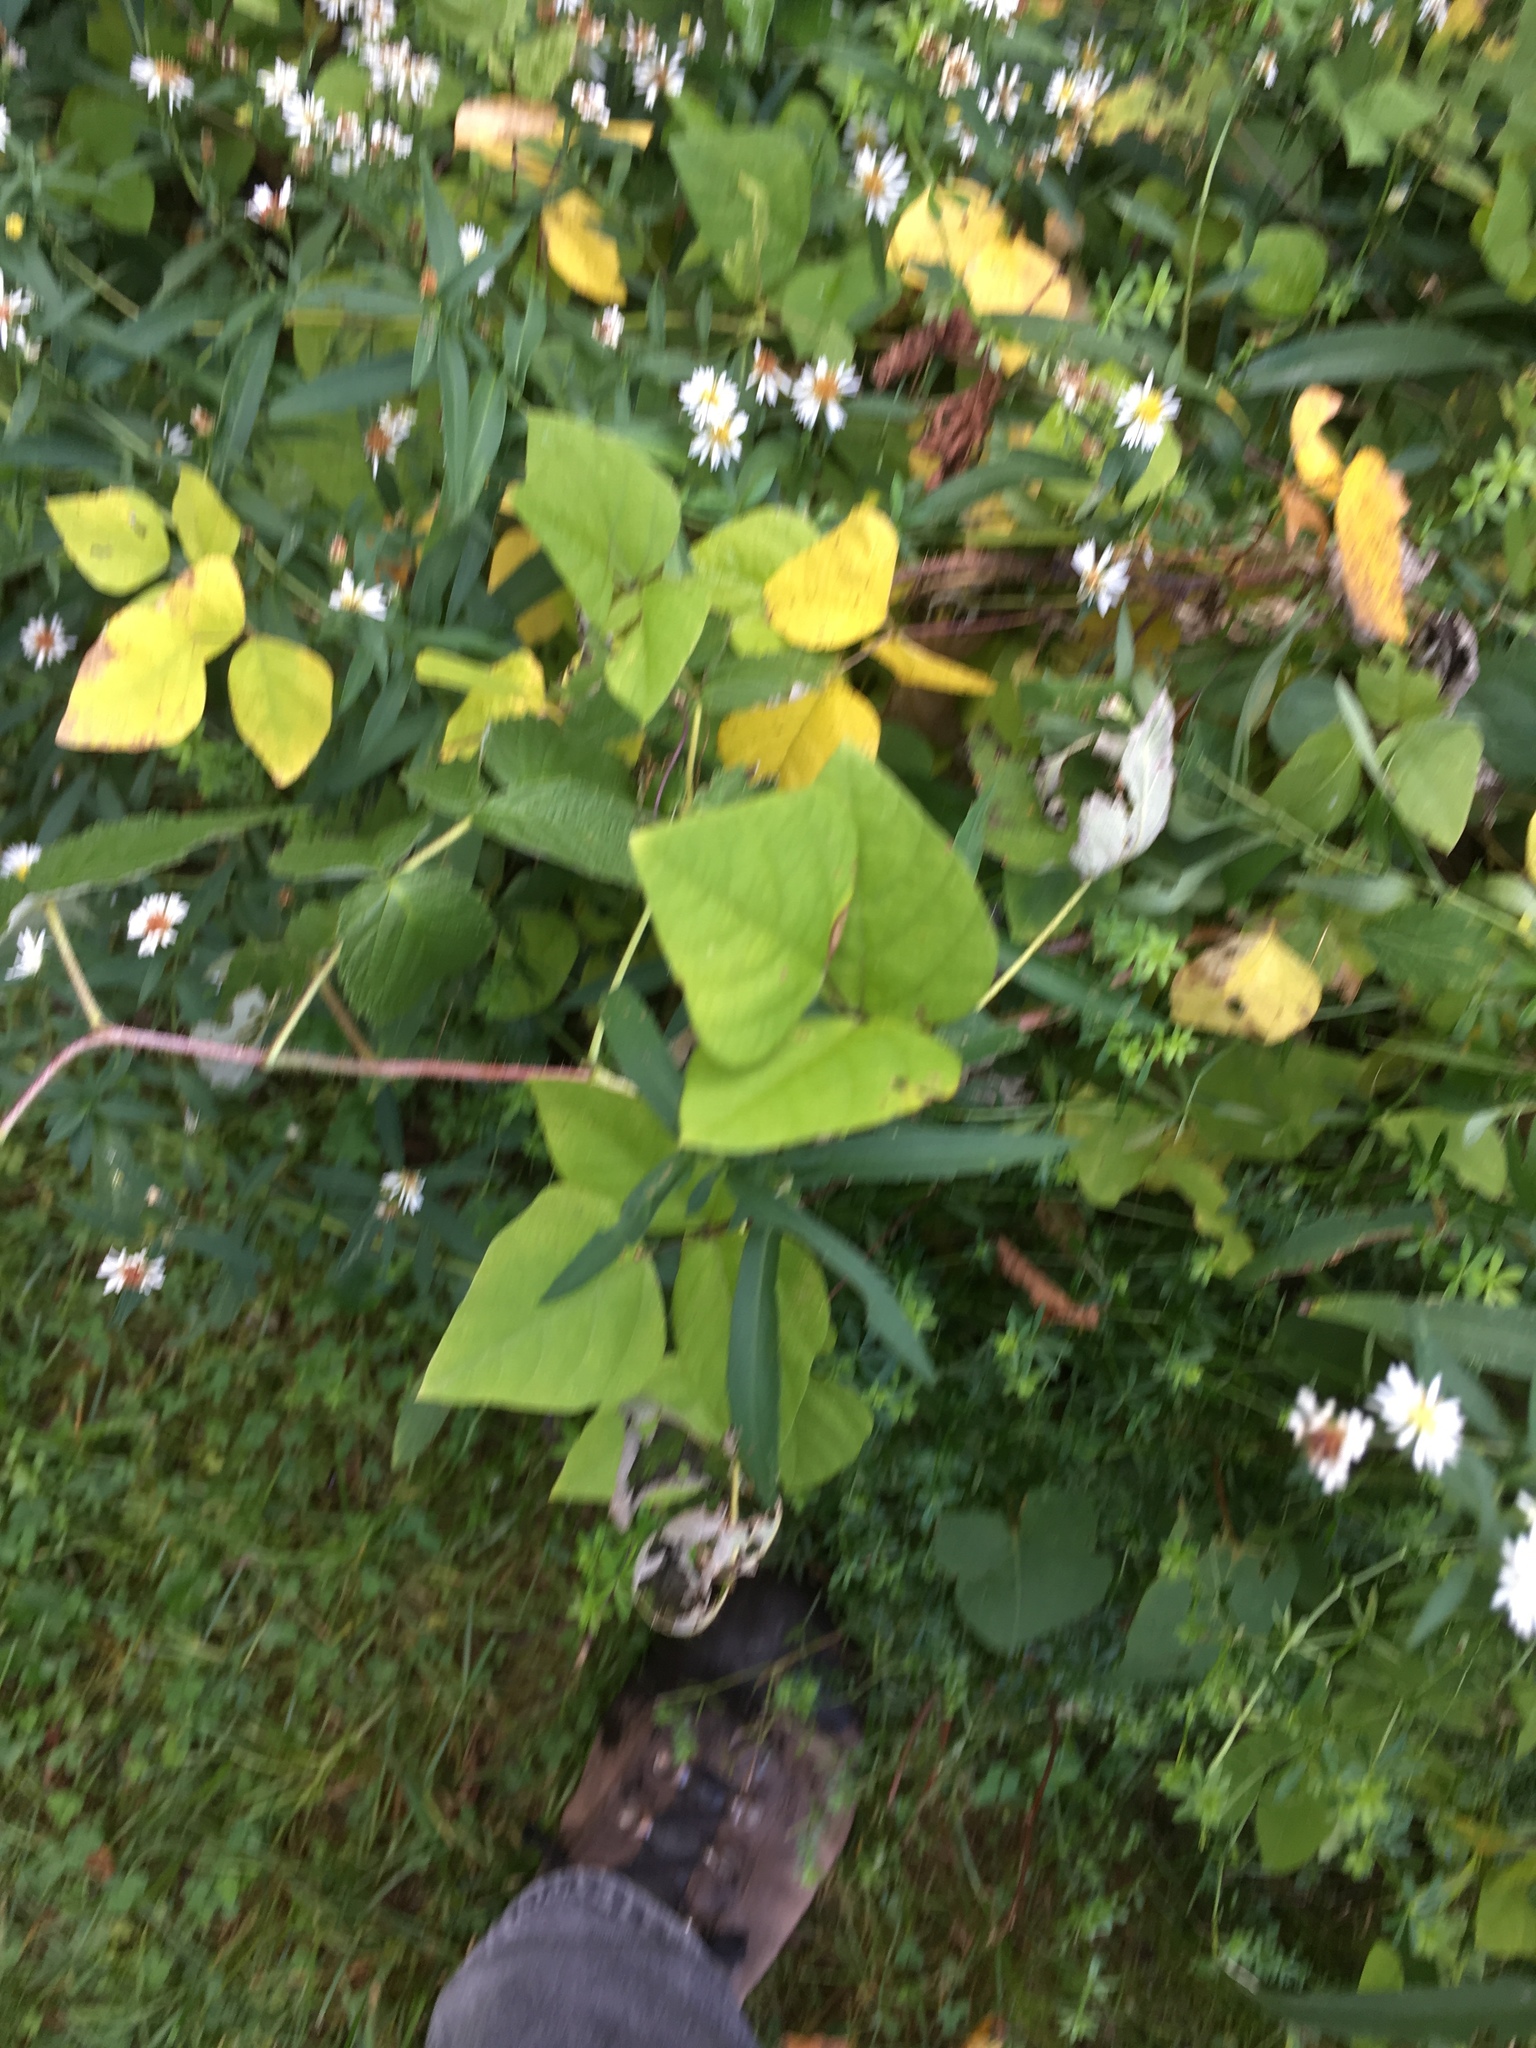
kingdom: Plantae
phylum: Tracheophyta
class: Magnoliopsida
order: Fabales
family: Fabaceae
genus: Amphicarpaea
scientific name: Amphicarpaea bracteata
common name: American hog peanut
